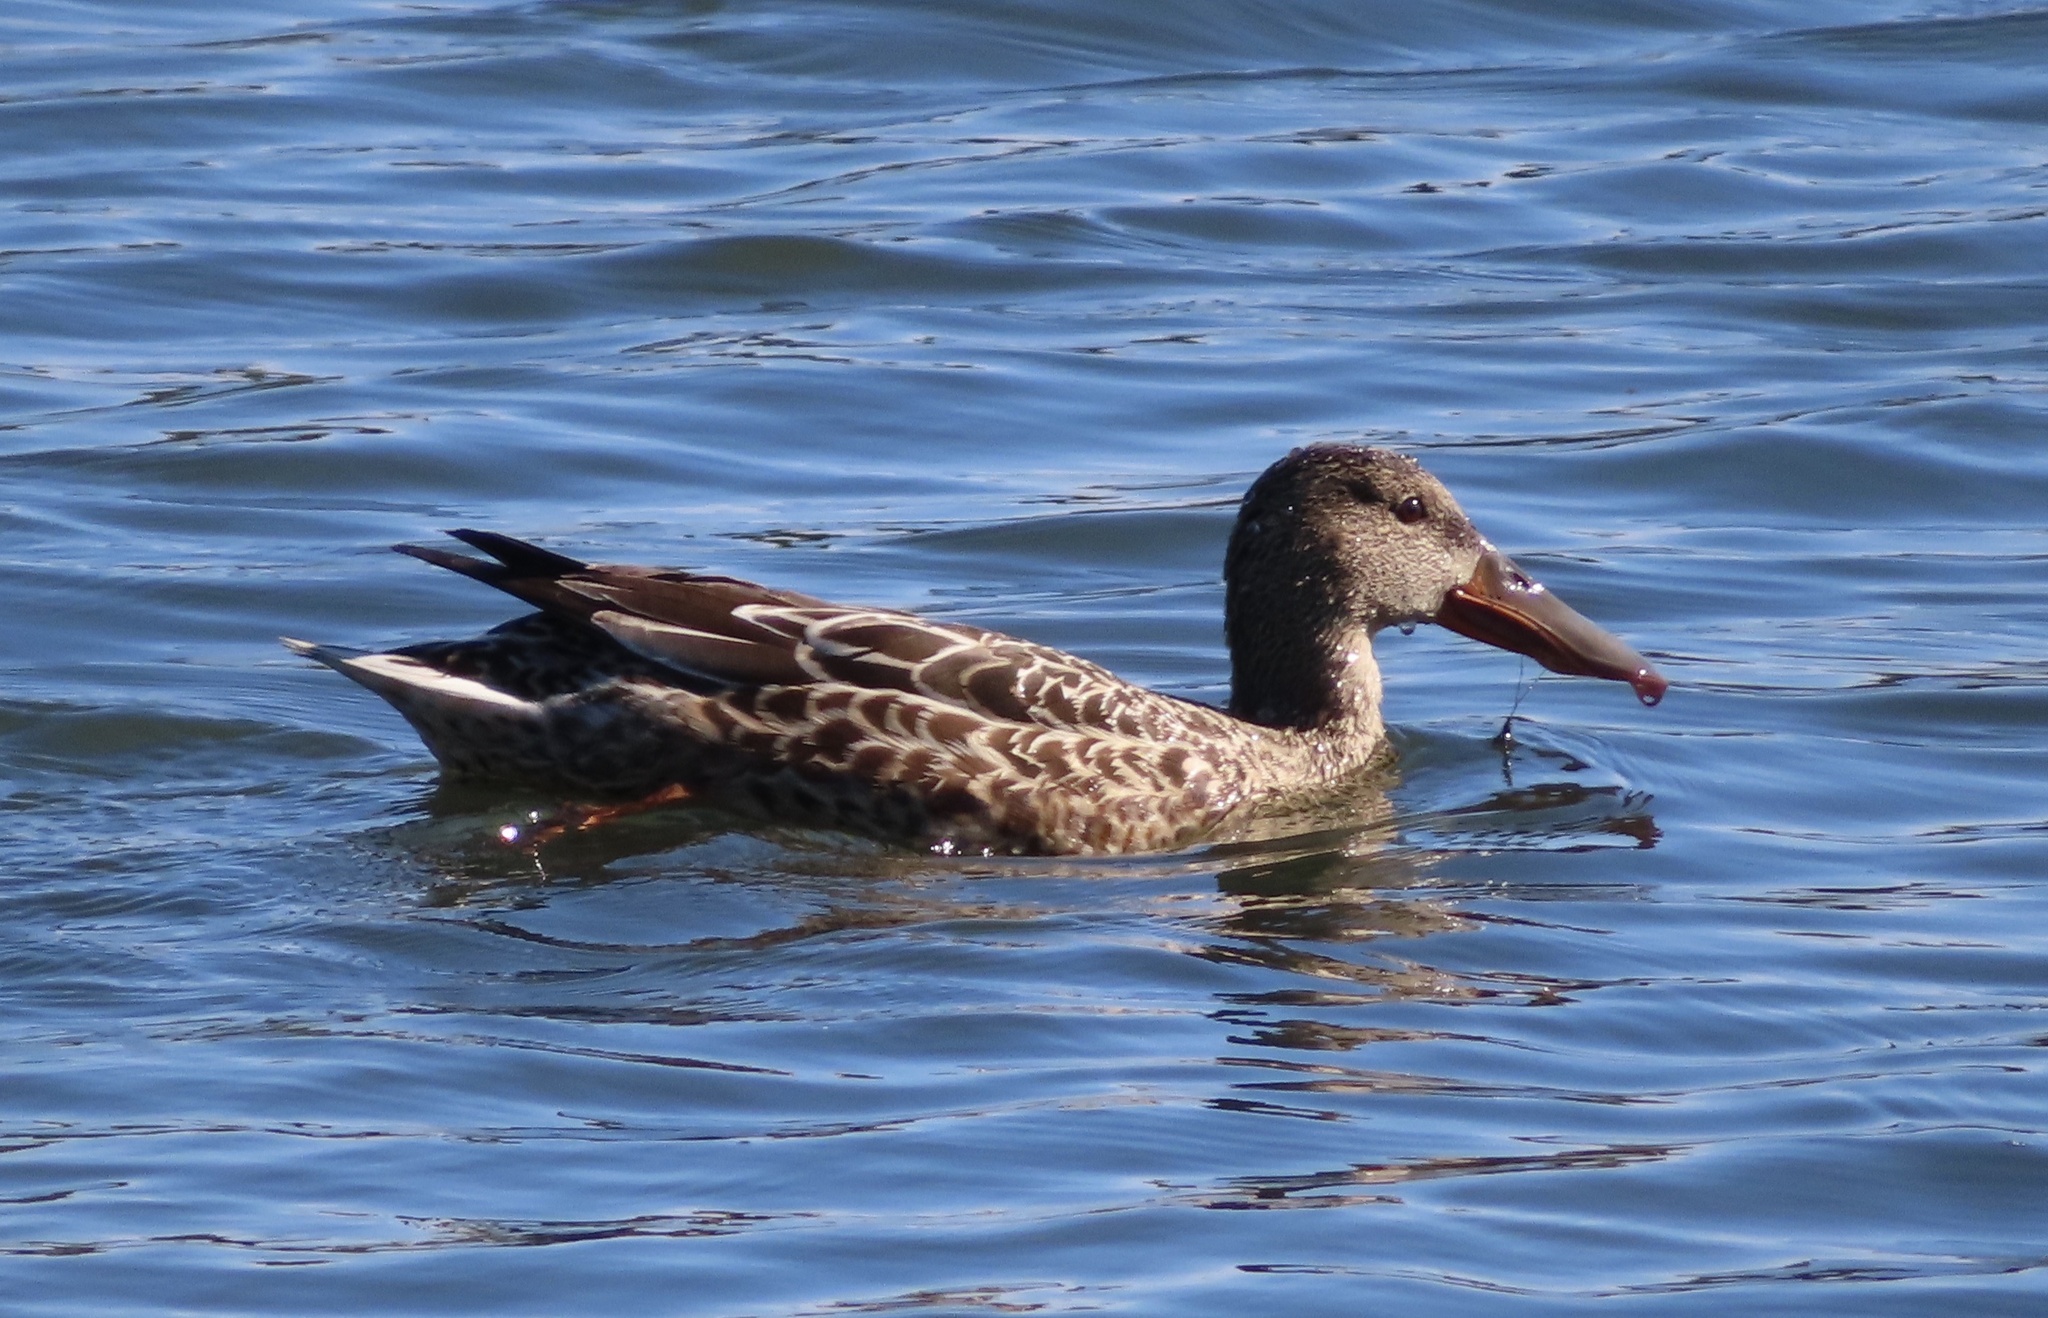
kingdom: Animalia
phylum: Chordata
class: Aves
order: Anseriformes
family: Anatidae
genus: Spatula
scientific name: Spatula clypeata
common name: Northern shoveler
